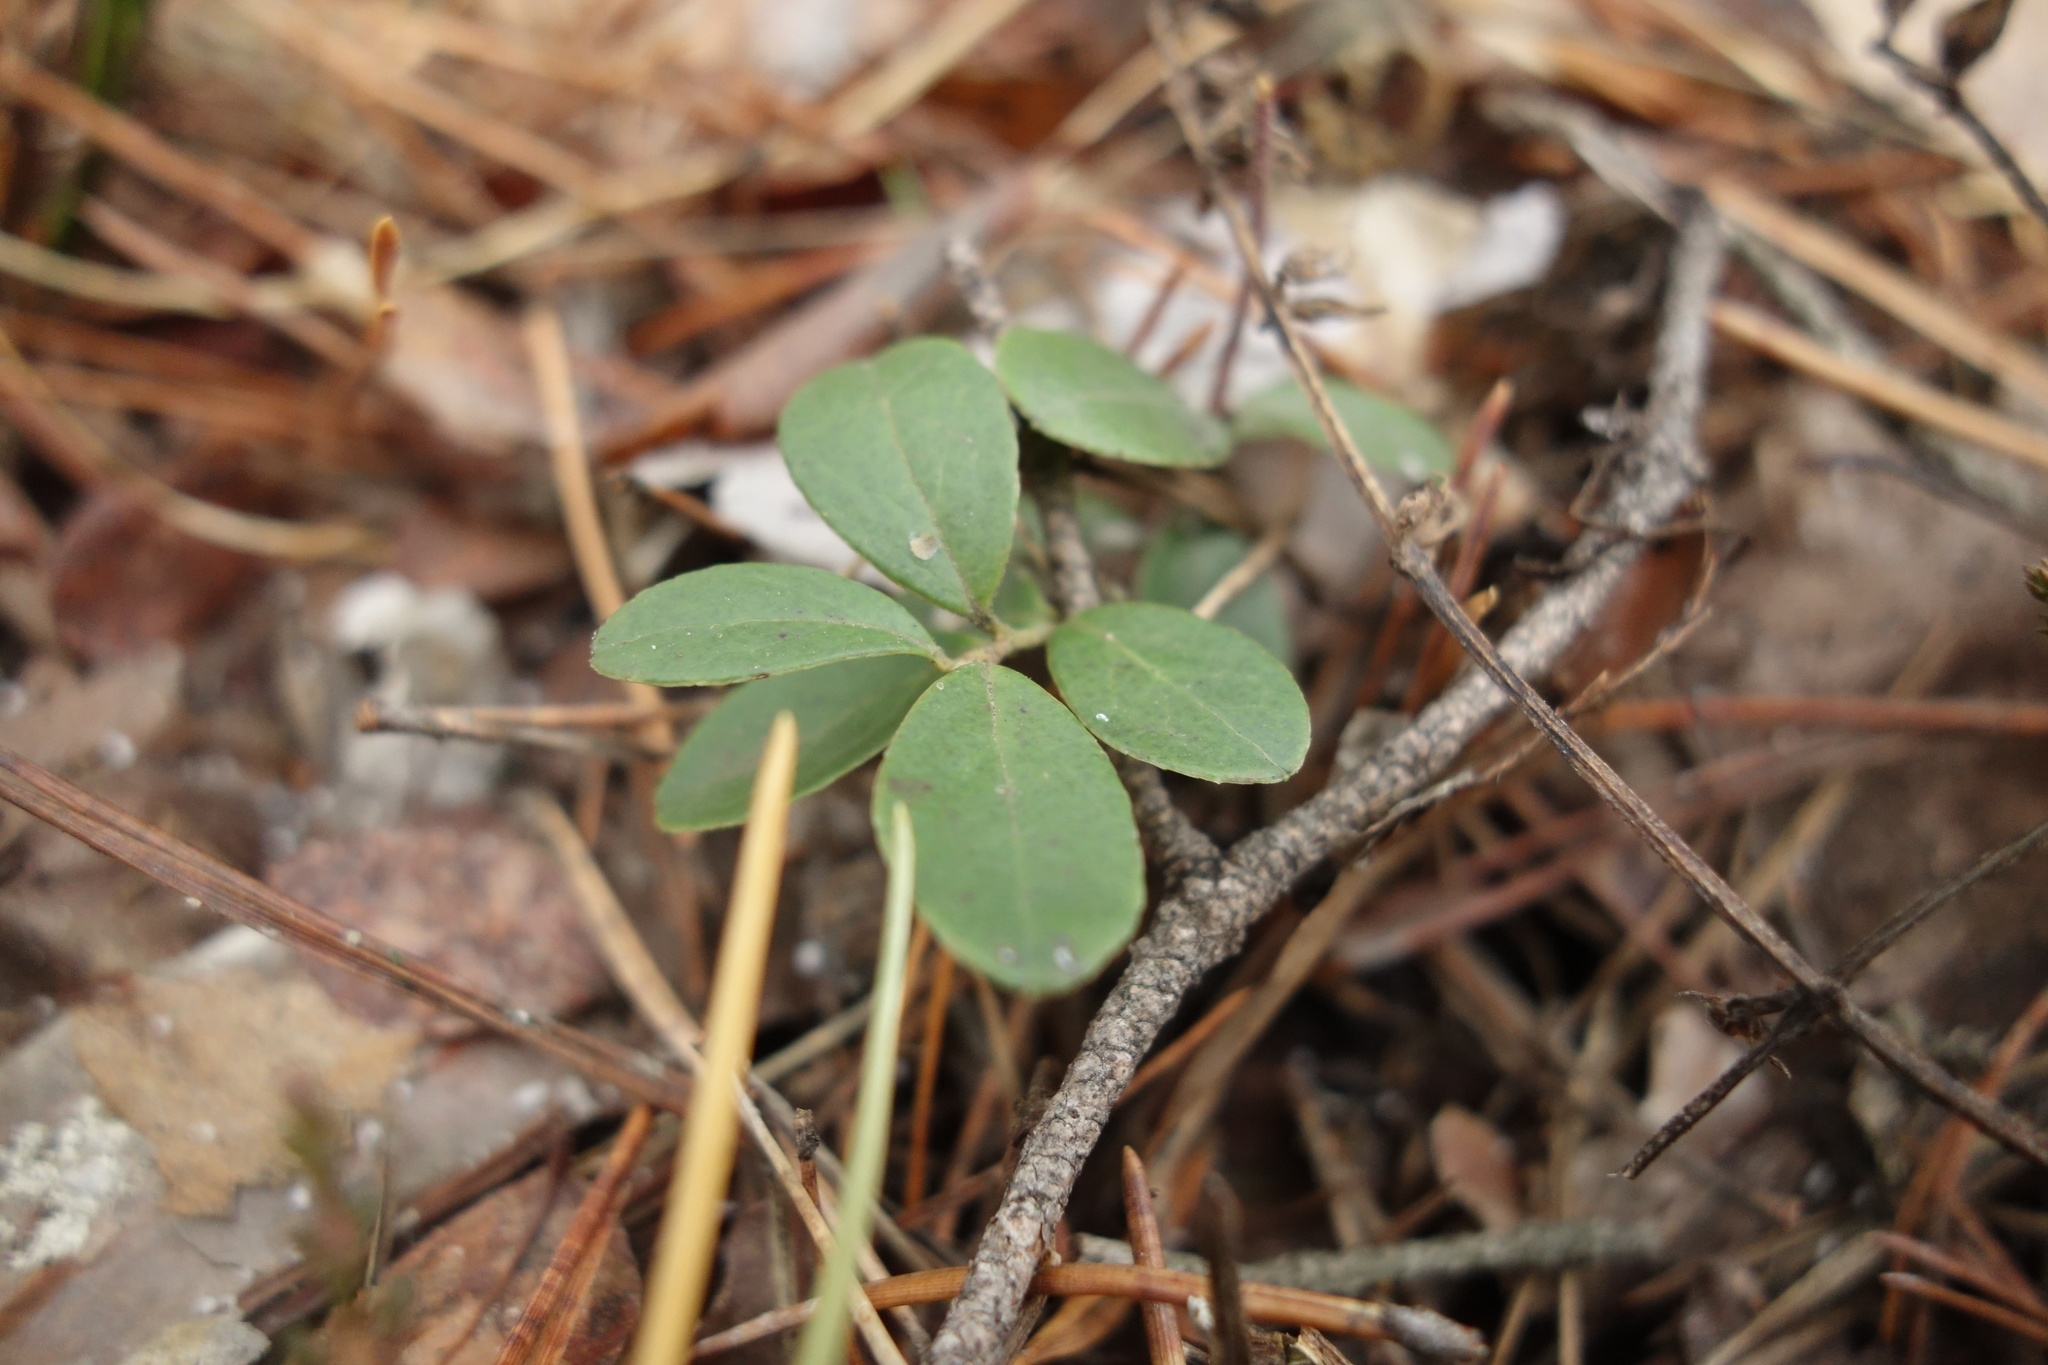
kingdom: Plantae
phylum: Tracheophyta
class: Magnoliopsida
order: Ericales
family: Ericaceae
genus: Vaccinium
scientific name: Vaccinium vitis-idaea
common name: Cowberry
